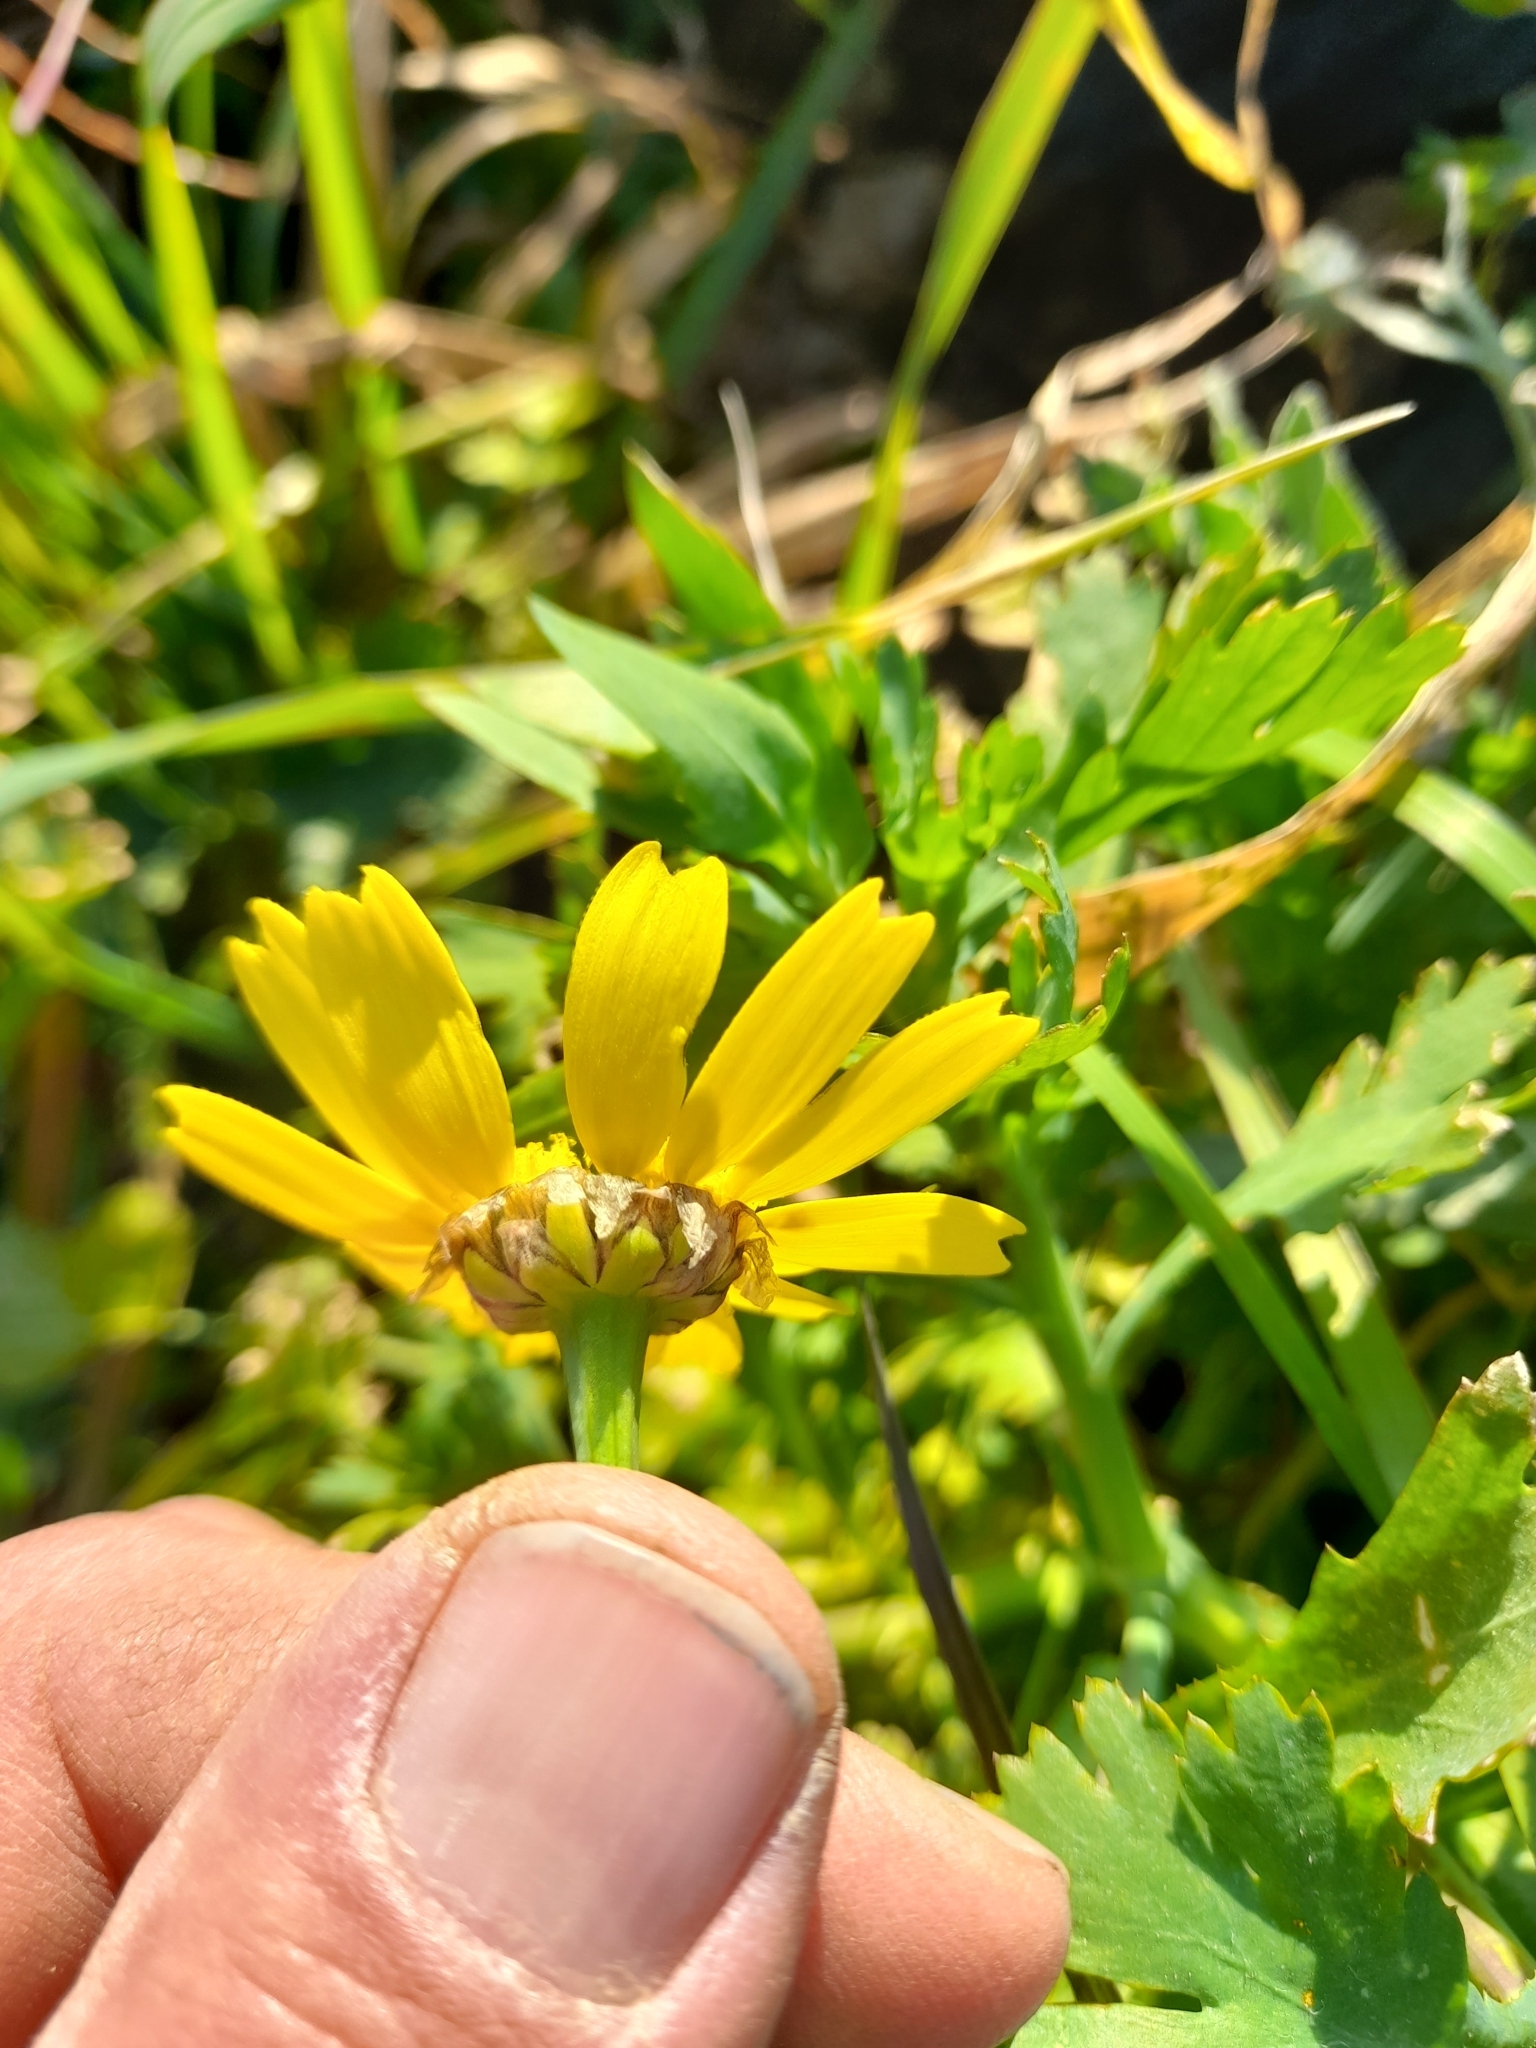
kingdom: Plantae
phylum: Tracheophyta
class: Magnoliopsida
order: Asterales
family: Asteraceae
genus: Glebionis
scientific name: Glebionis segetum
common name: Corndaisy
